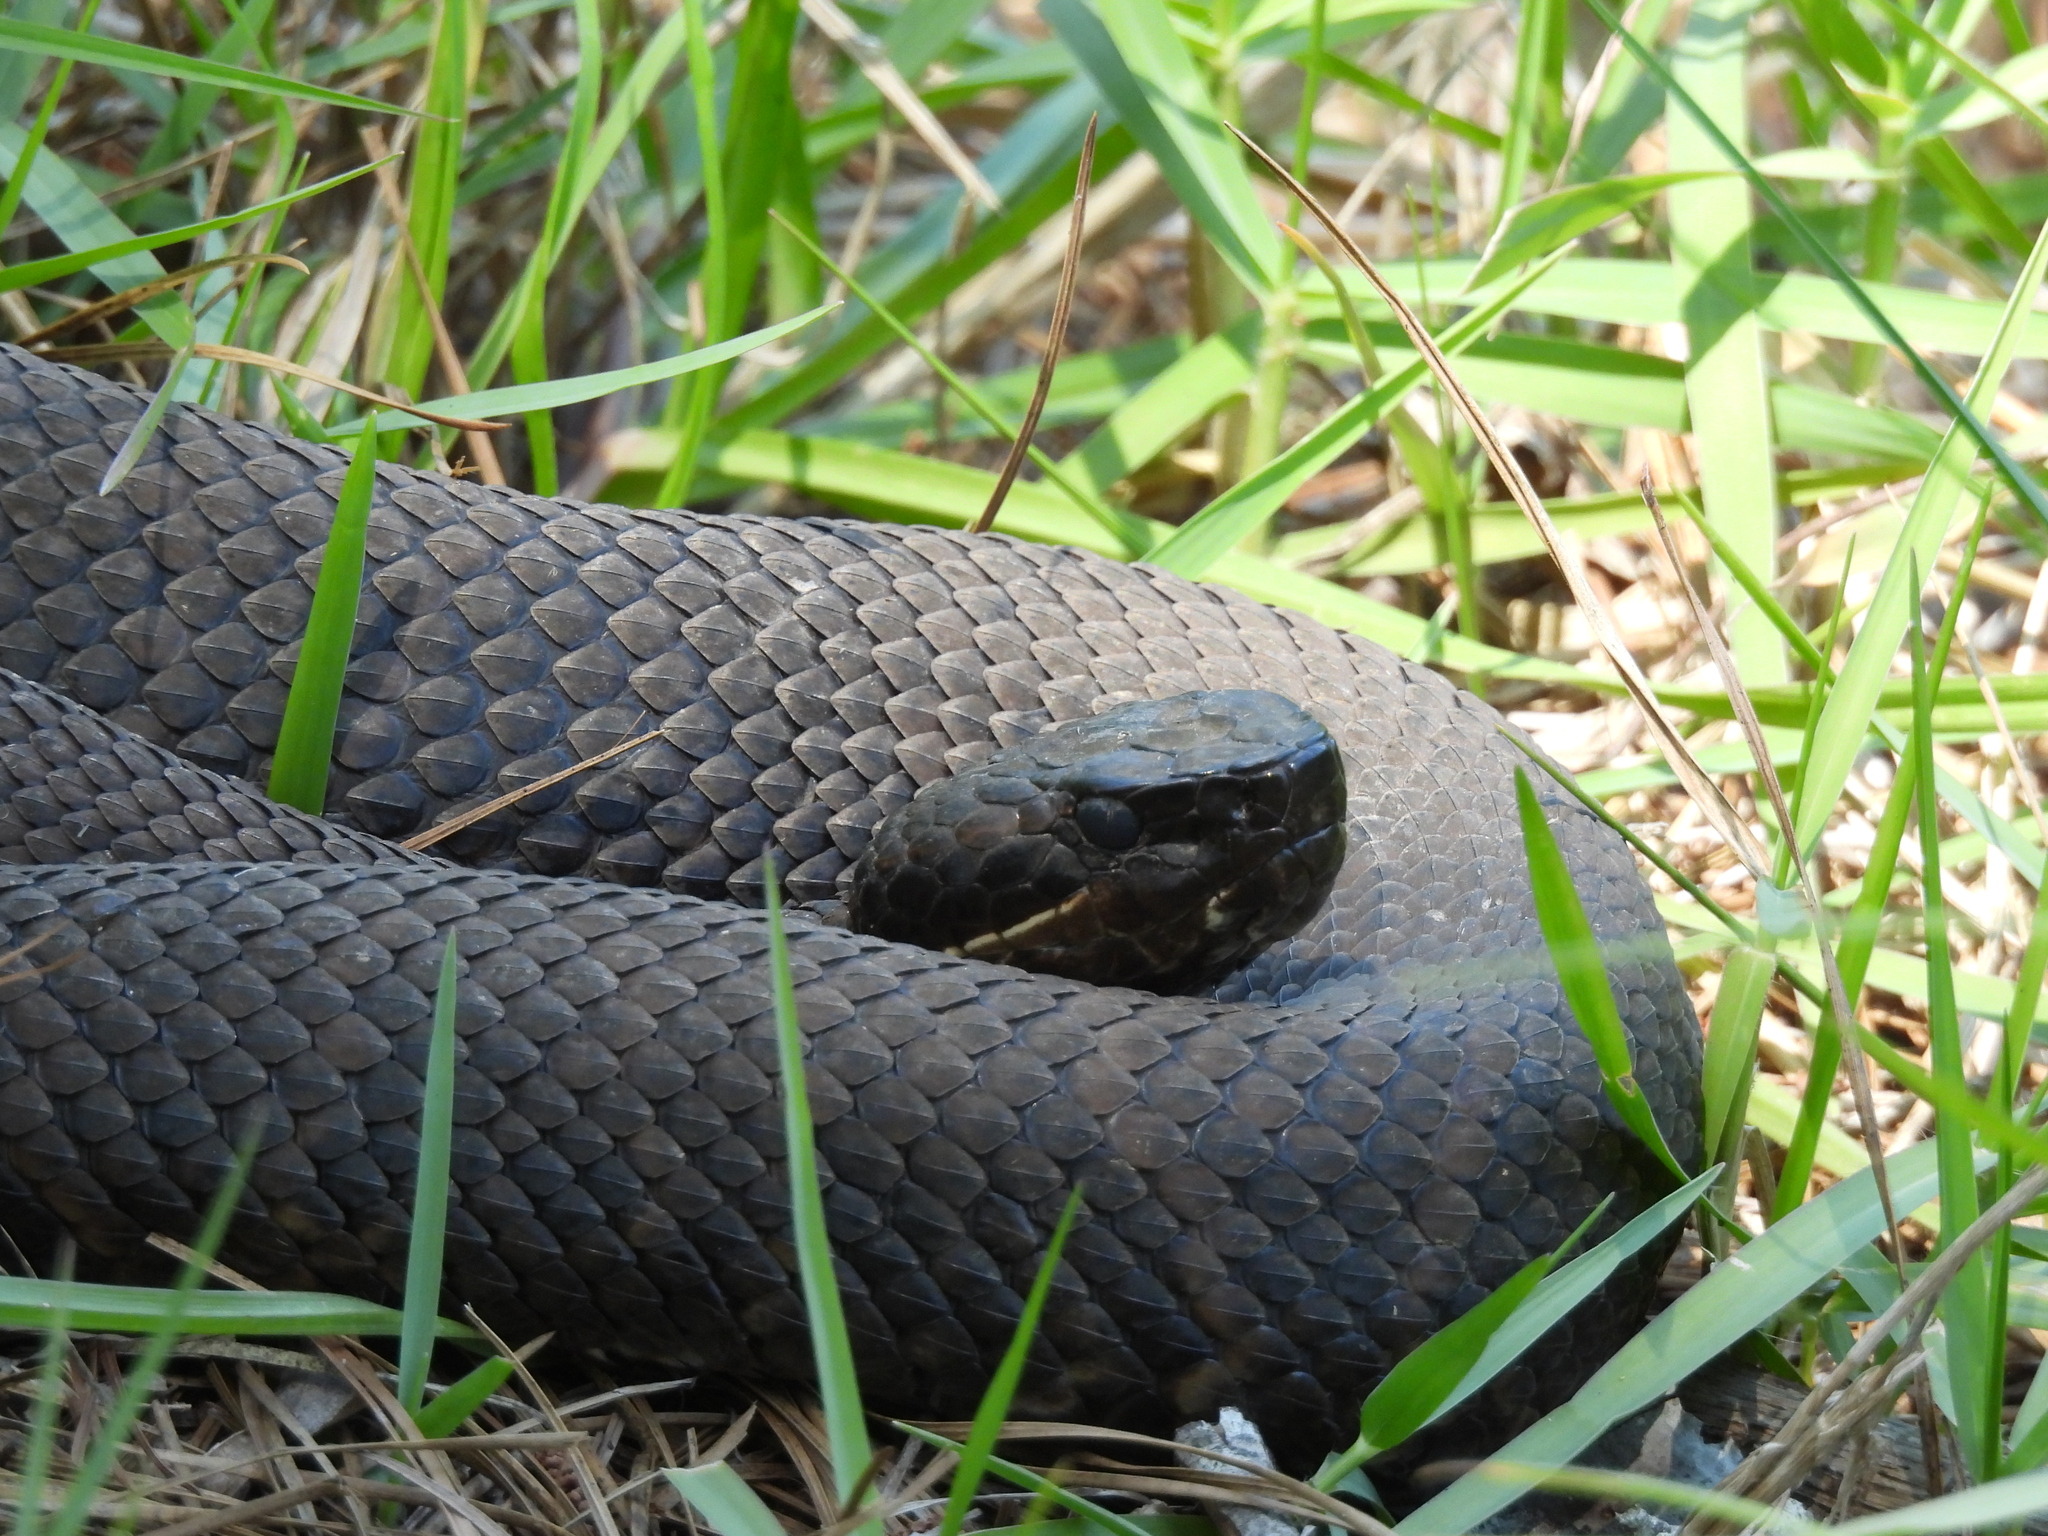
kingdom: Animalia
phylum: Chordata
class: Squamata
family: Viperidae
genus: Agkistrodon
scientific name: Agkistrodon piscivorus
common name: Cottonmouth
